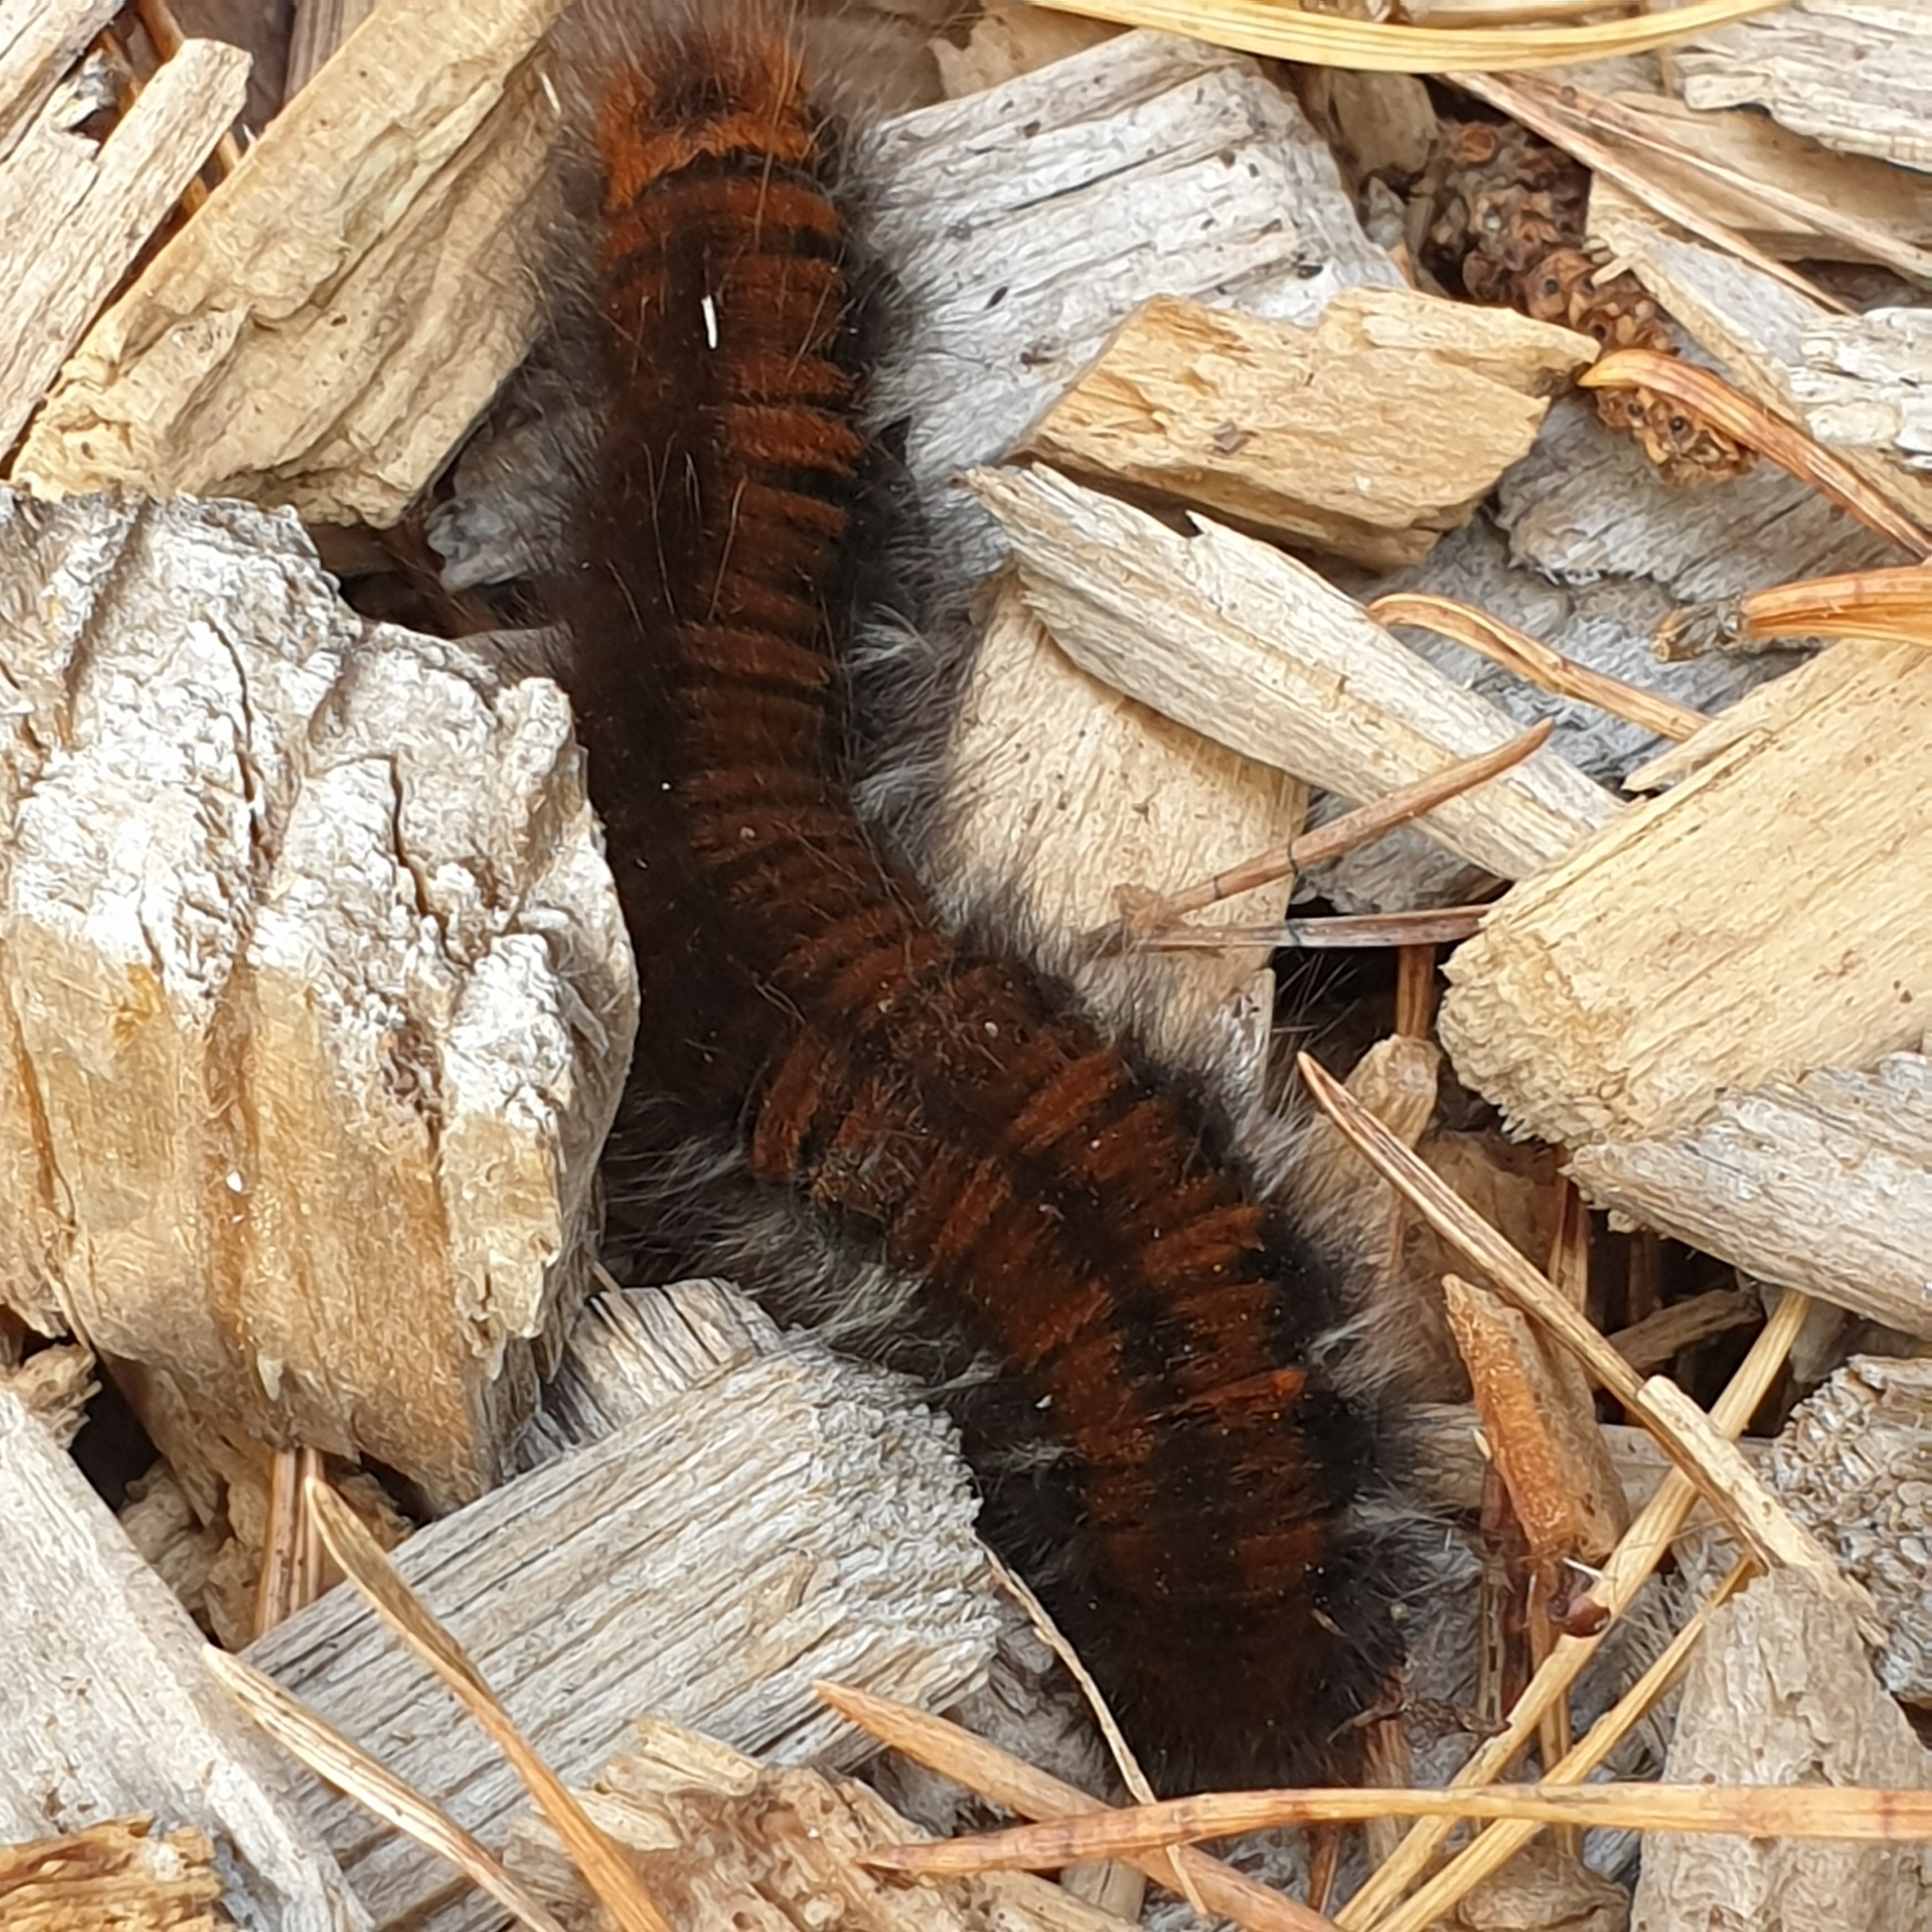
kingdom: Animalia
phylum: Arthropoda
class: Insecta
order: Lepidoptera
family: Lasiocampidae
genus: Macrothylacia
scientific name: Macrothylacia rubi
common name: Fox moth
